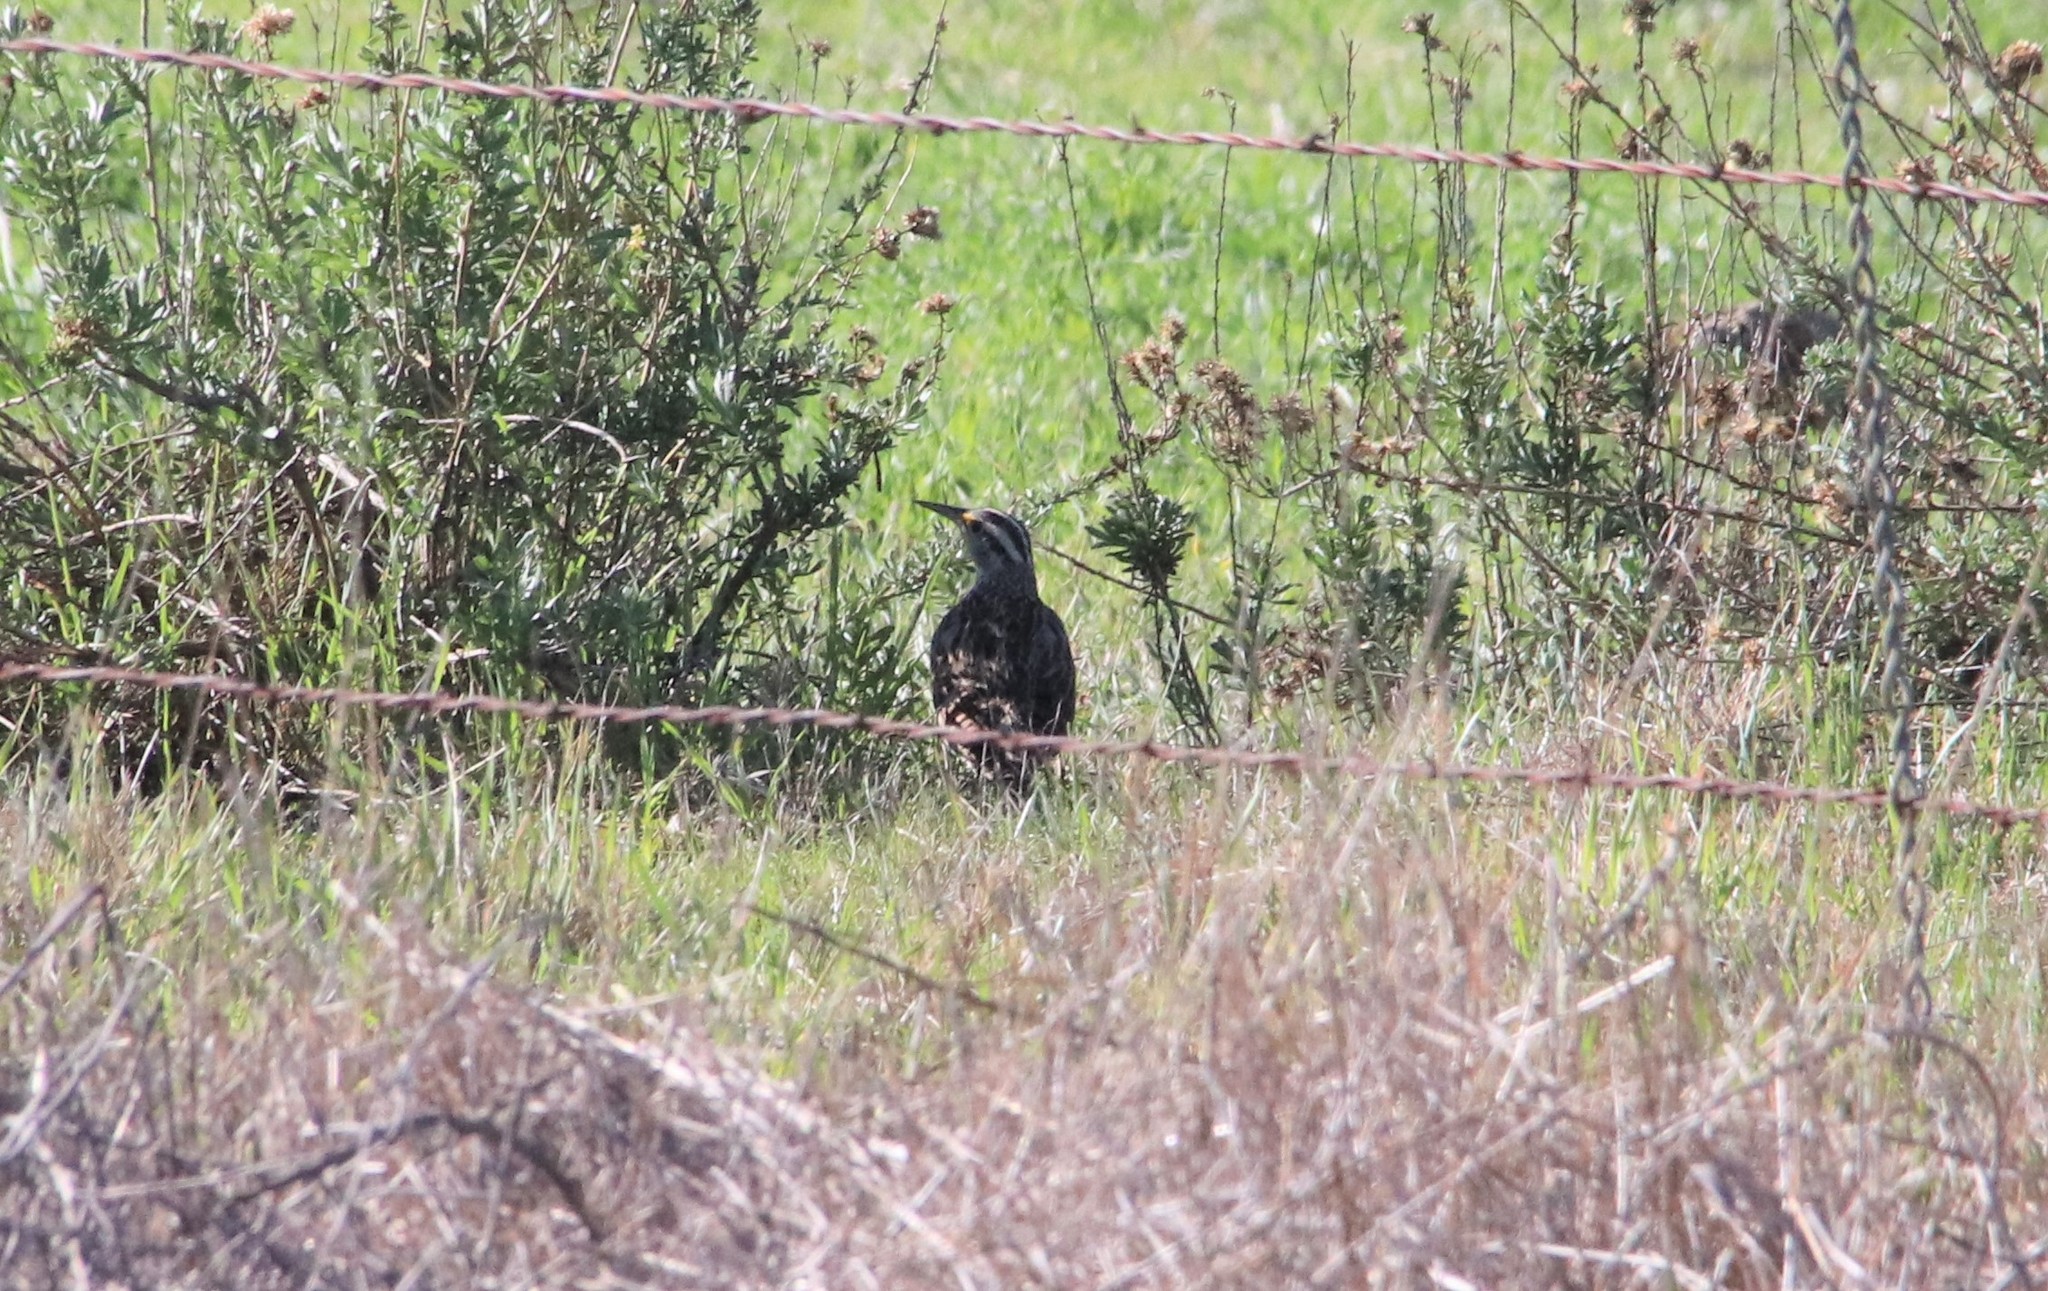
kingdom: Animalia
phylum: Chordata
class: Aves
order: Passeriformes
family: Icteridae
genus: Sturnella
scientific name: Sturnella neglecta
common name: Western meadowlark
